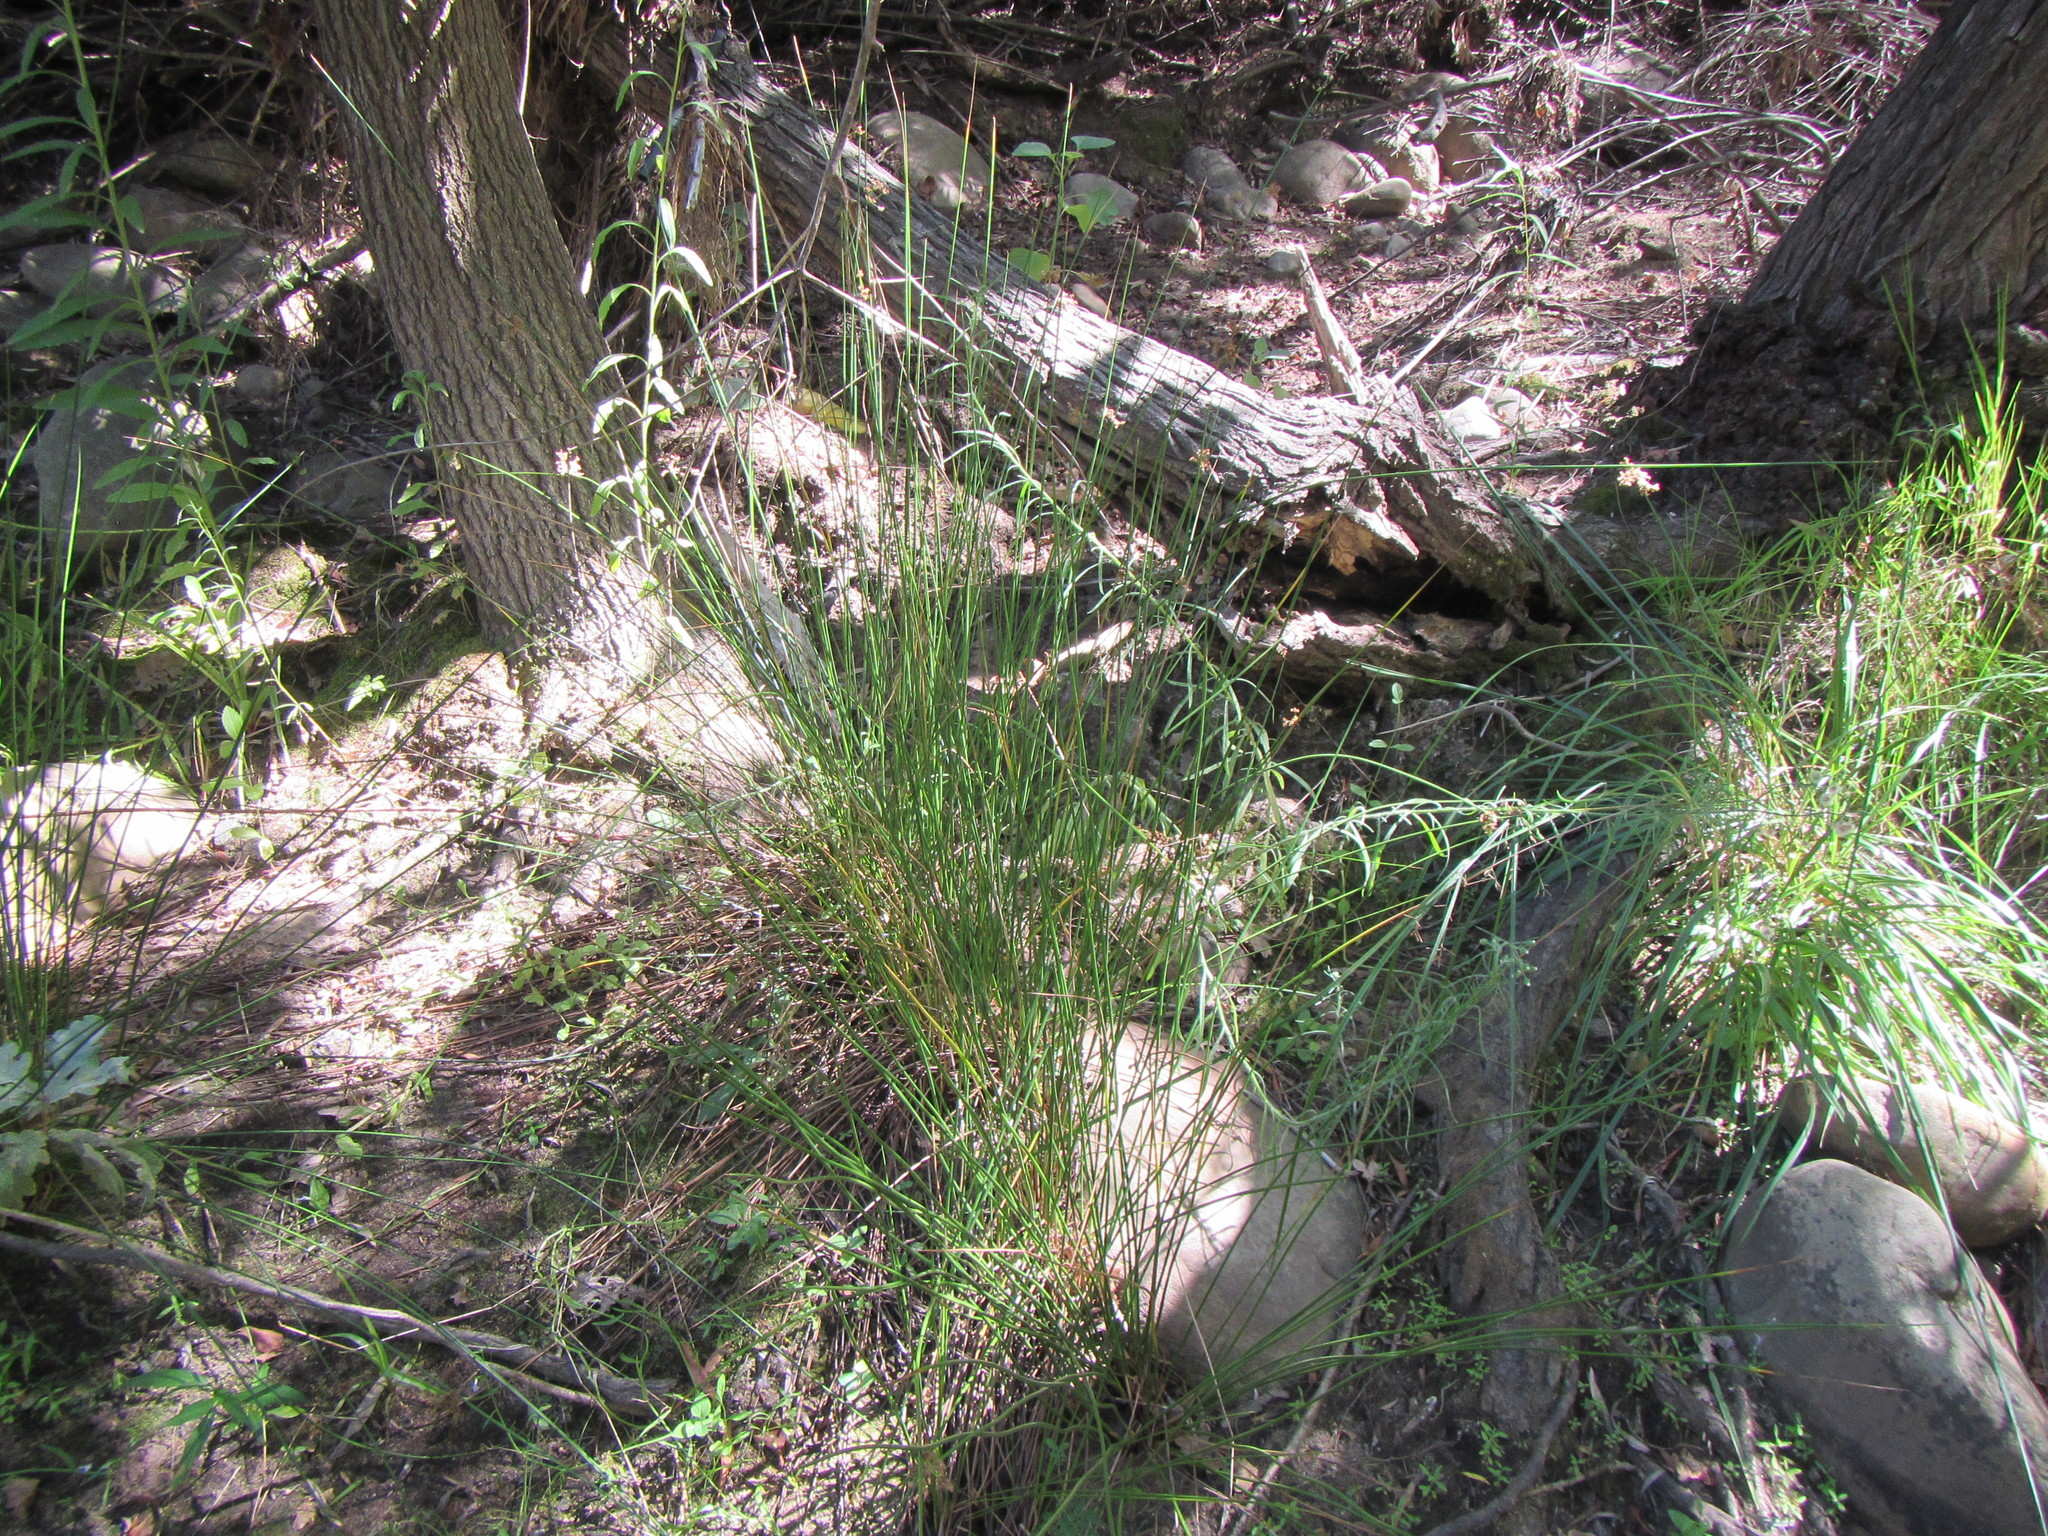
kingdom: Plantae
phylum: Tracheophyta
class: Liliopsida
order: Poales
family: Juncaceae
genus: Juncus
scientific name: Juncus effusus
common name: Soft rush
